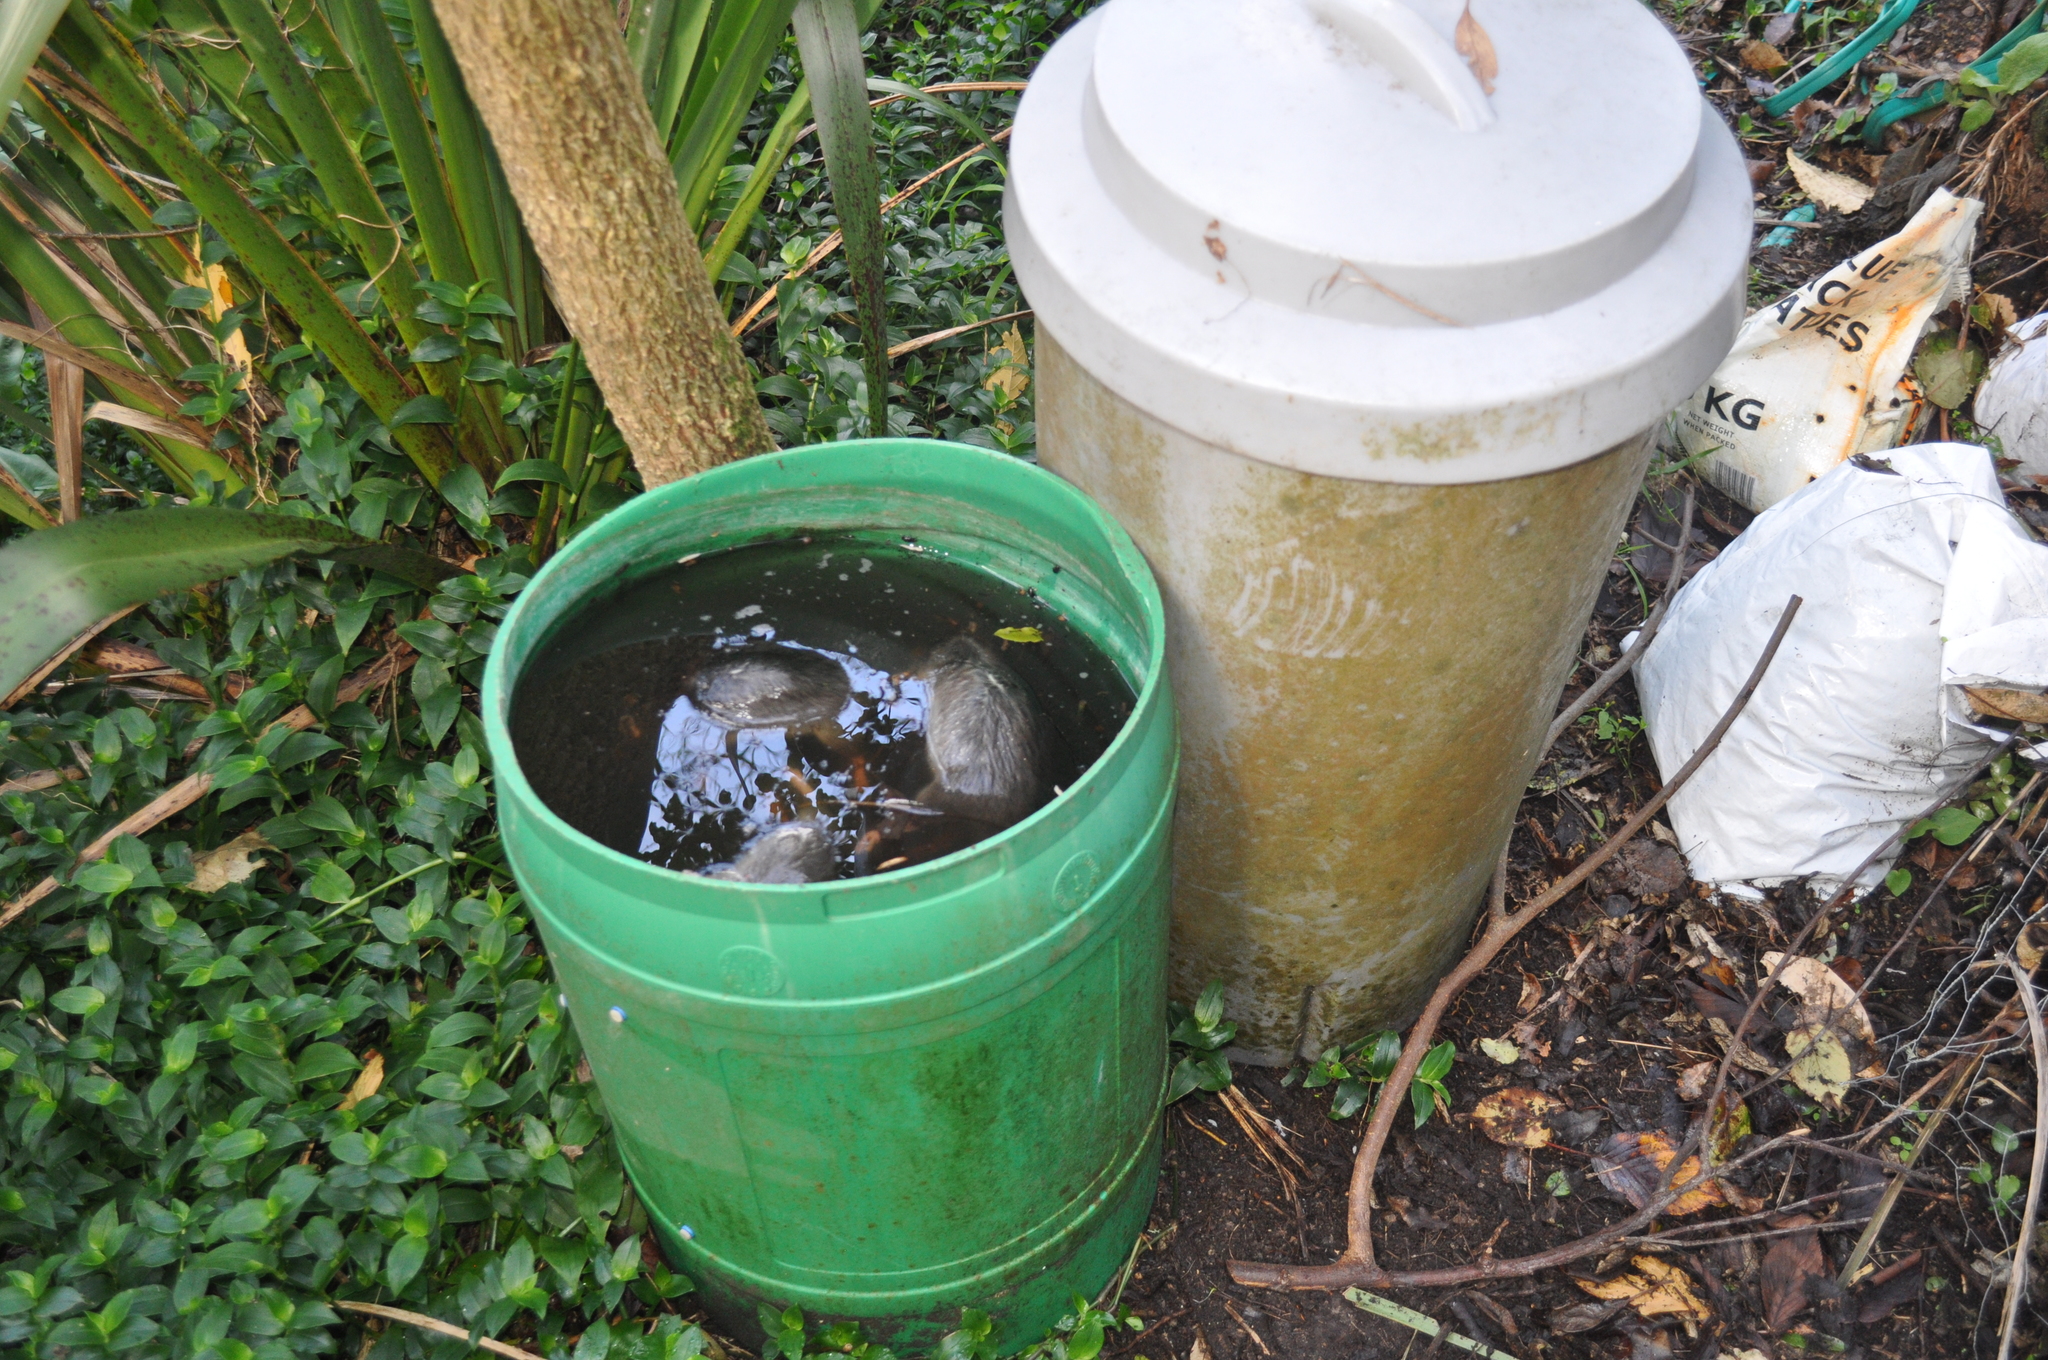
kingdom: Animalia
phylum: Chordata
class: Mammalia
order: Rodentia
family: Muridae
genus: Rattus
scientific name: Rattus norvegicus
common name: Brown rat
